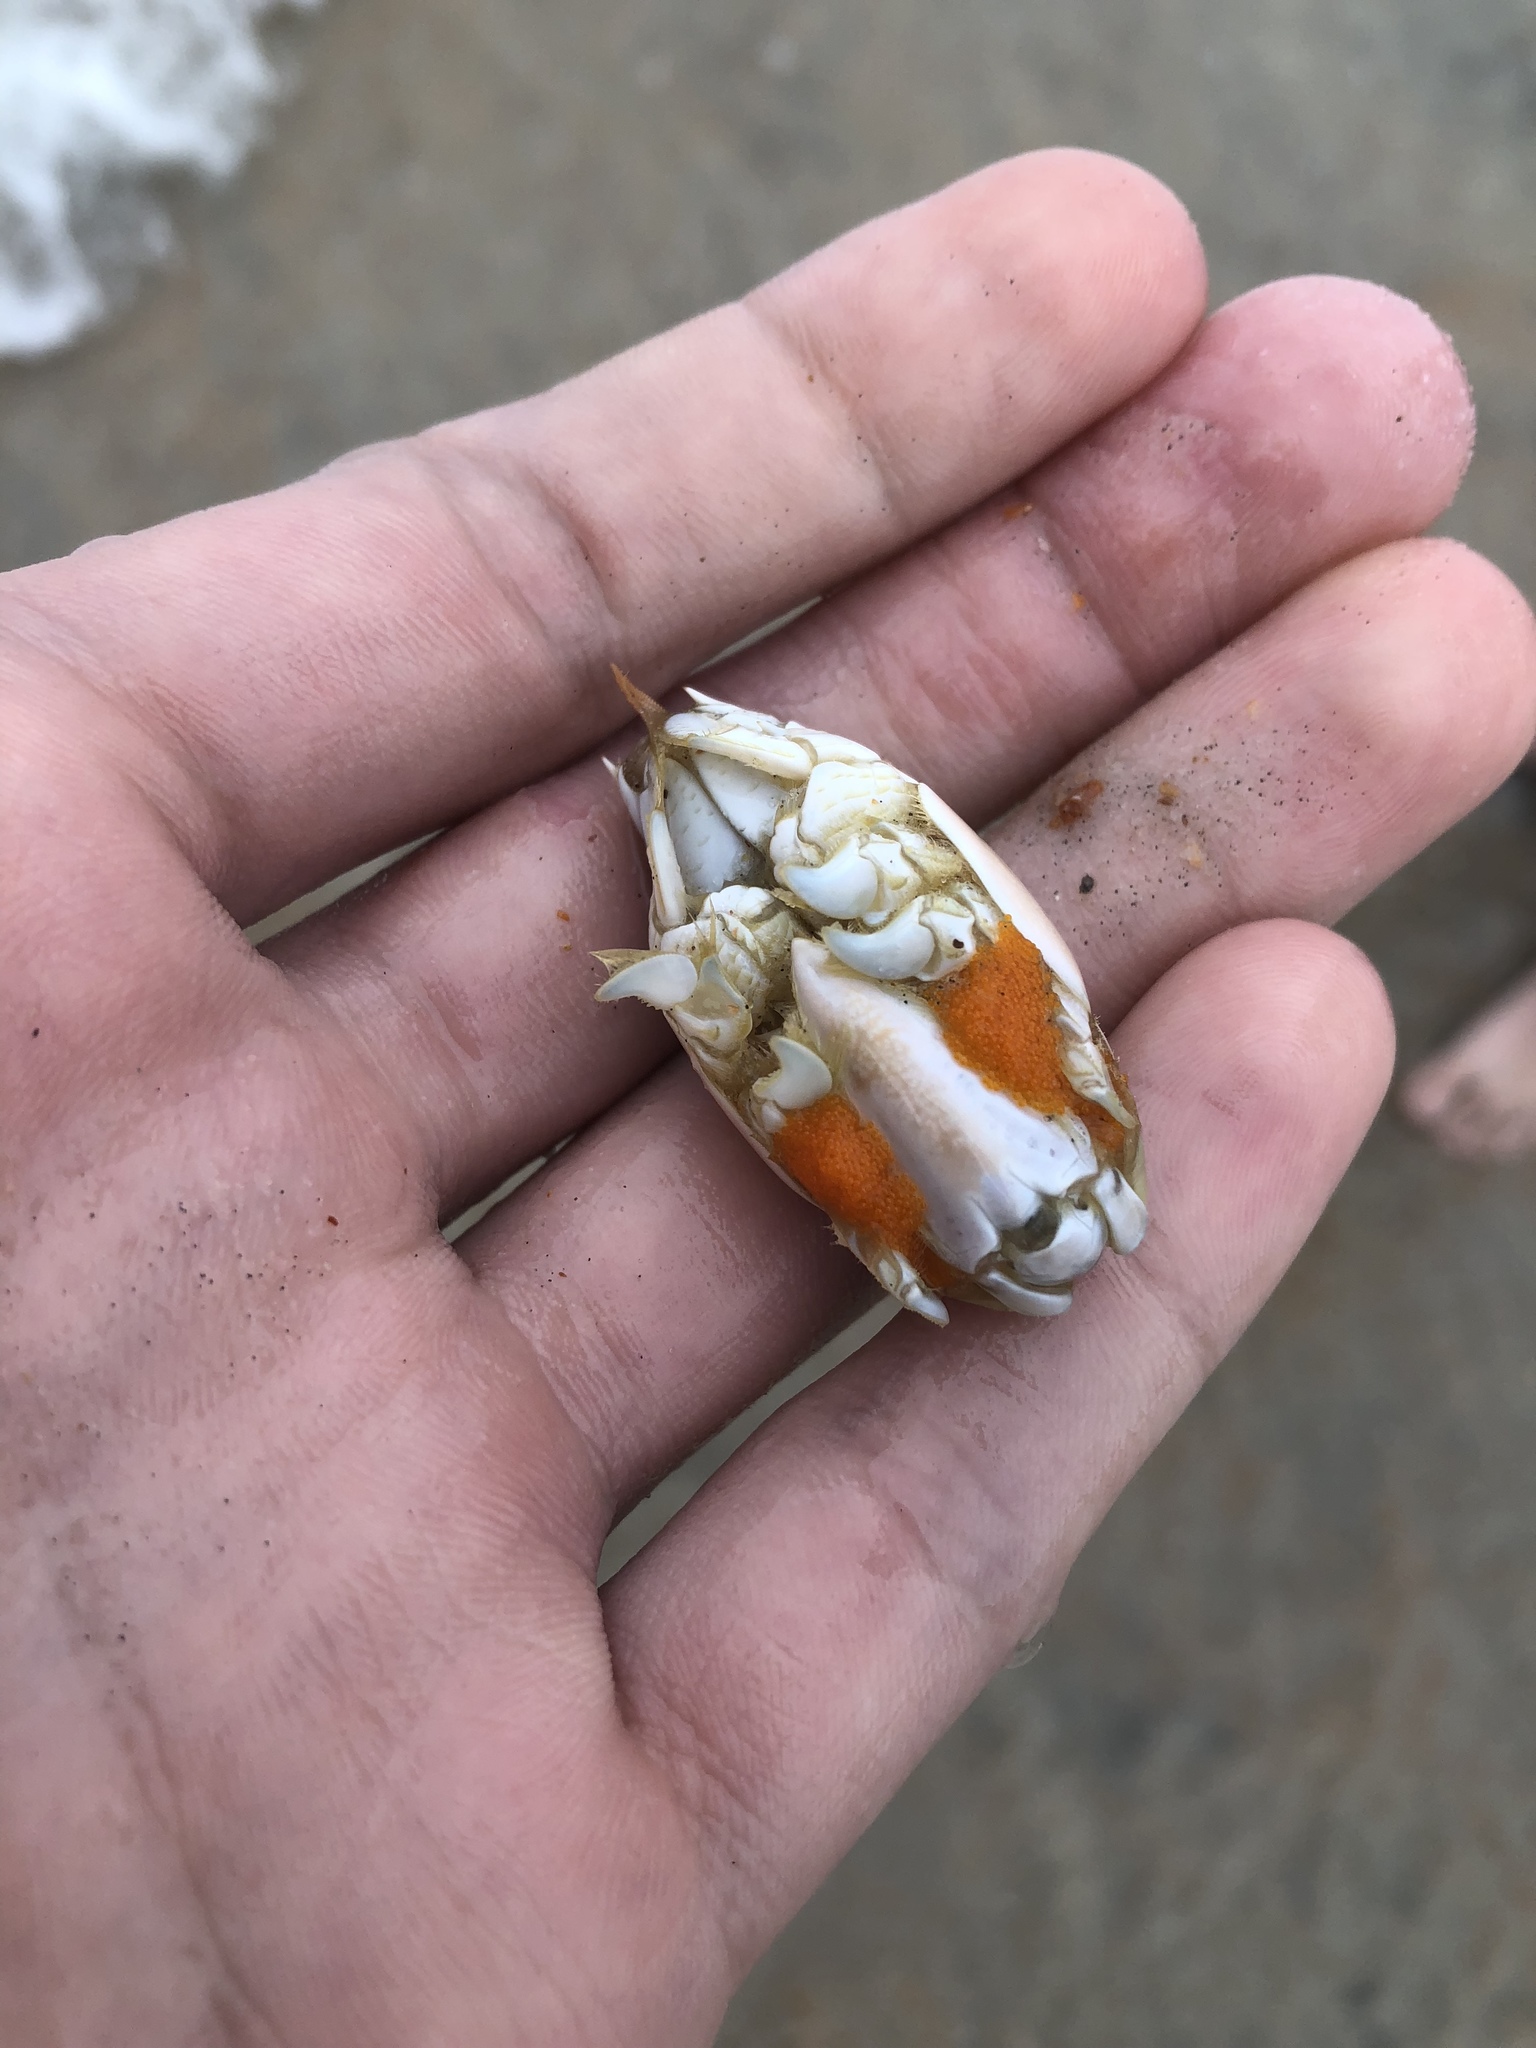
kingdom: Animalia
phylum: Arthropoda
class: Malacostraca
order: Decapoda
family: Hippidae
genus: Emerita
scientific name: Emerita talpoida
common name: Atlantic sand crab
